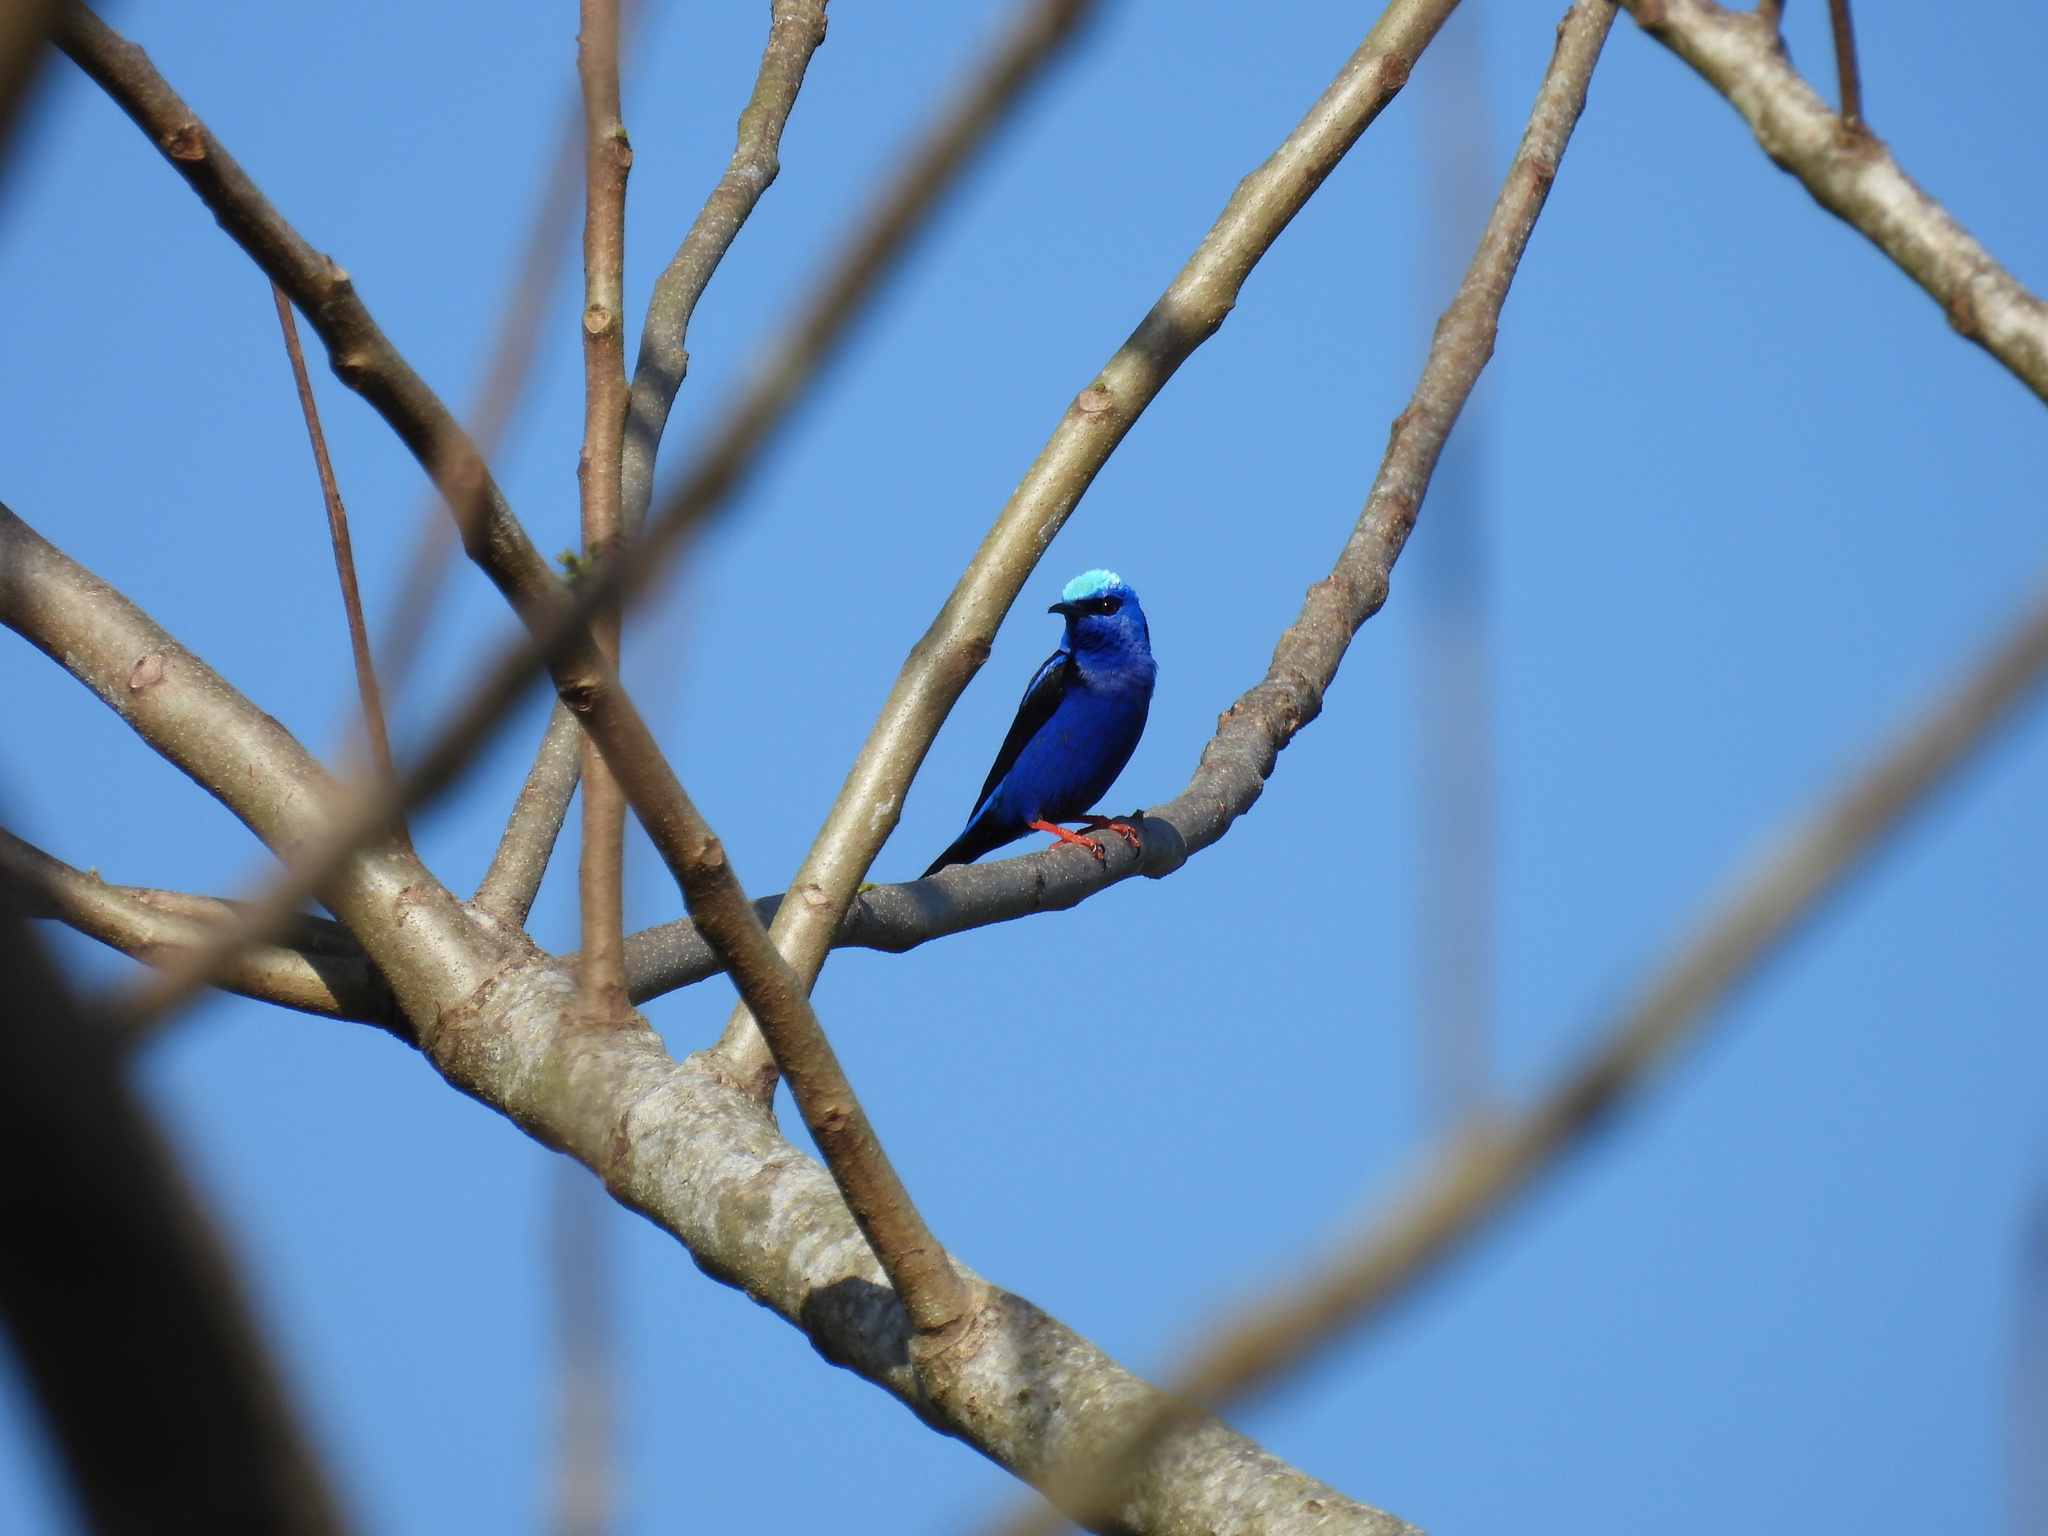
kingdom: Animalia
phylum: Chordata
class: Aves
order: Passeriformes
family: Thraupidae
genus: Cyanerpes
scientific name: Cyanerpes cyaneus
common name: Red-legged honeycreeper
